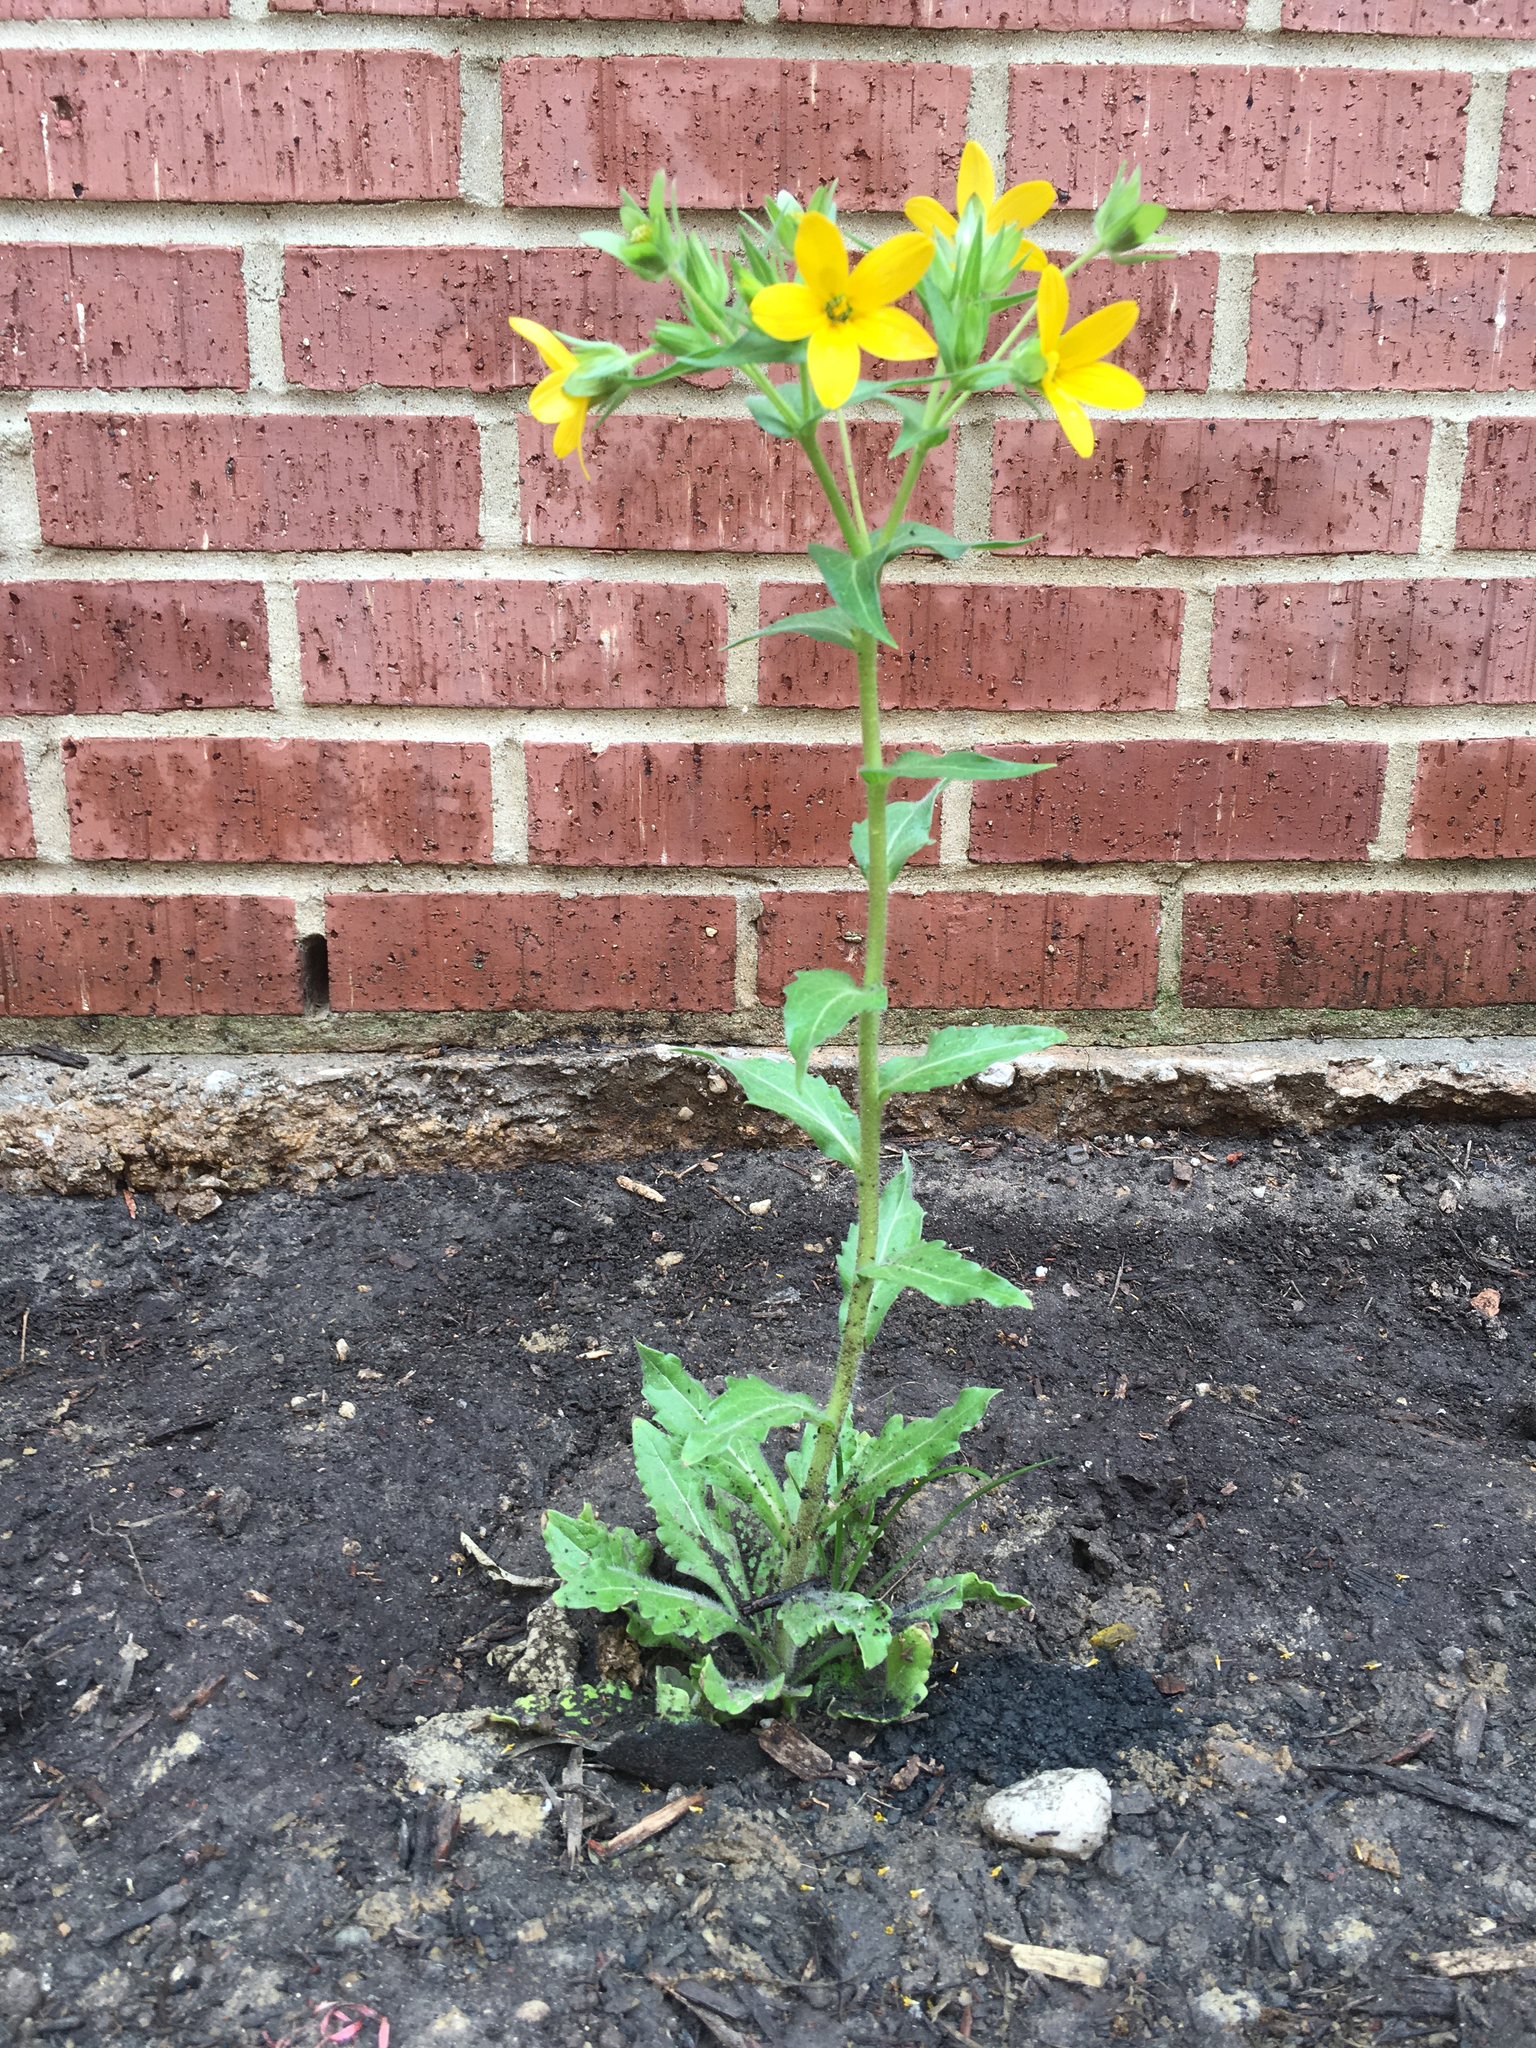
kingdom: Plantae
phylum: Tracheophyta
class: Magnoliopsida
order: Asterales
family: Asteraceae
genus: Lindheimera
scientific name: Lindheimera texana
